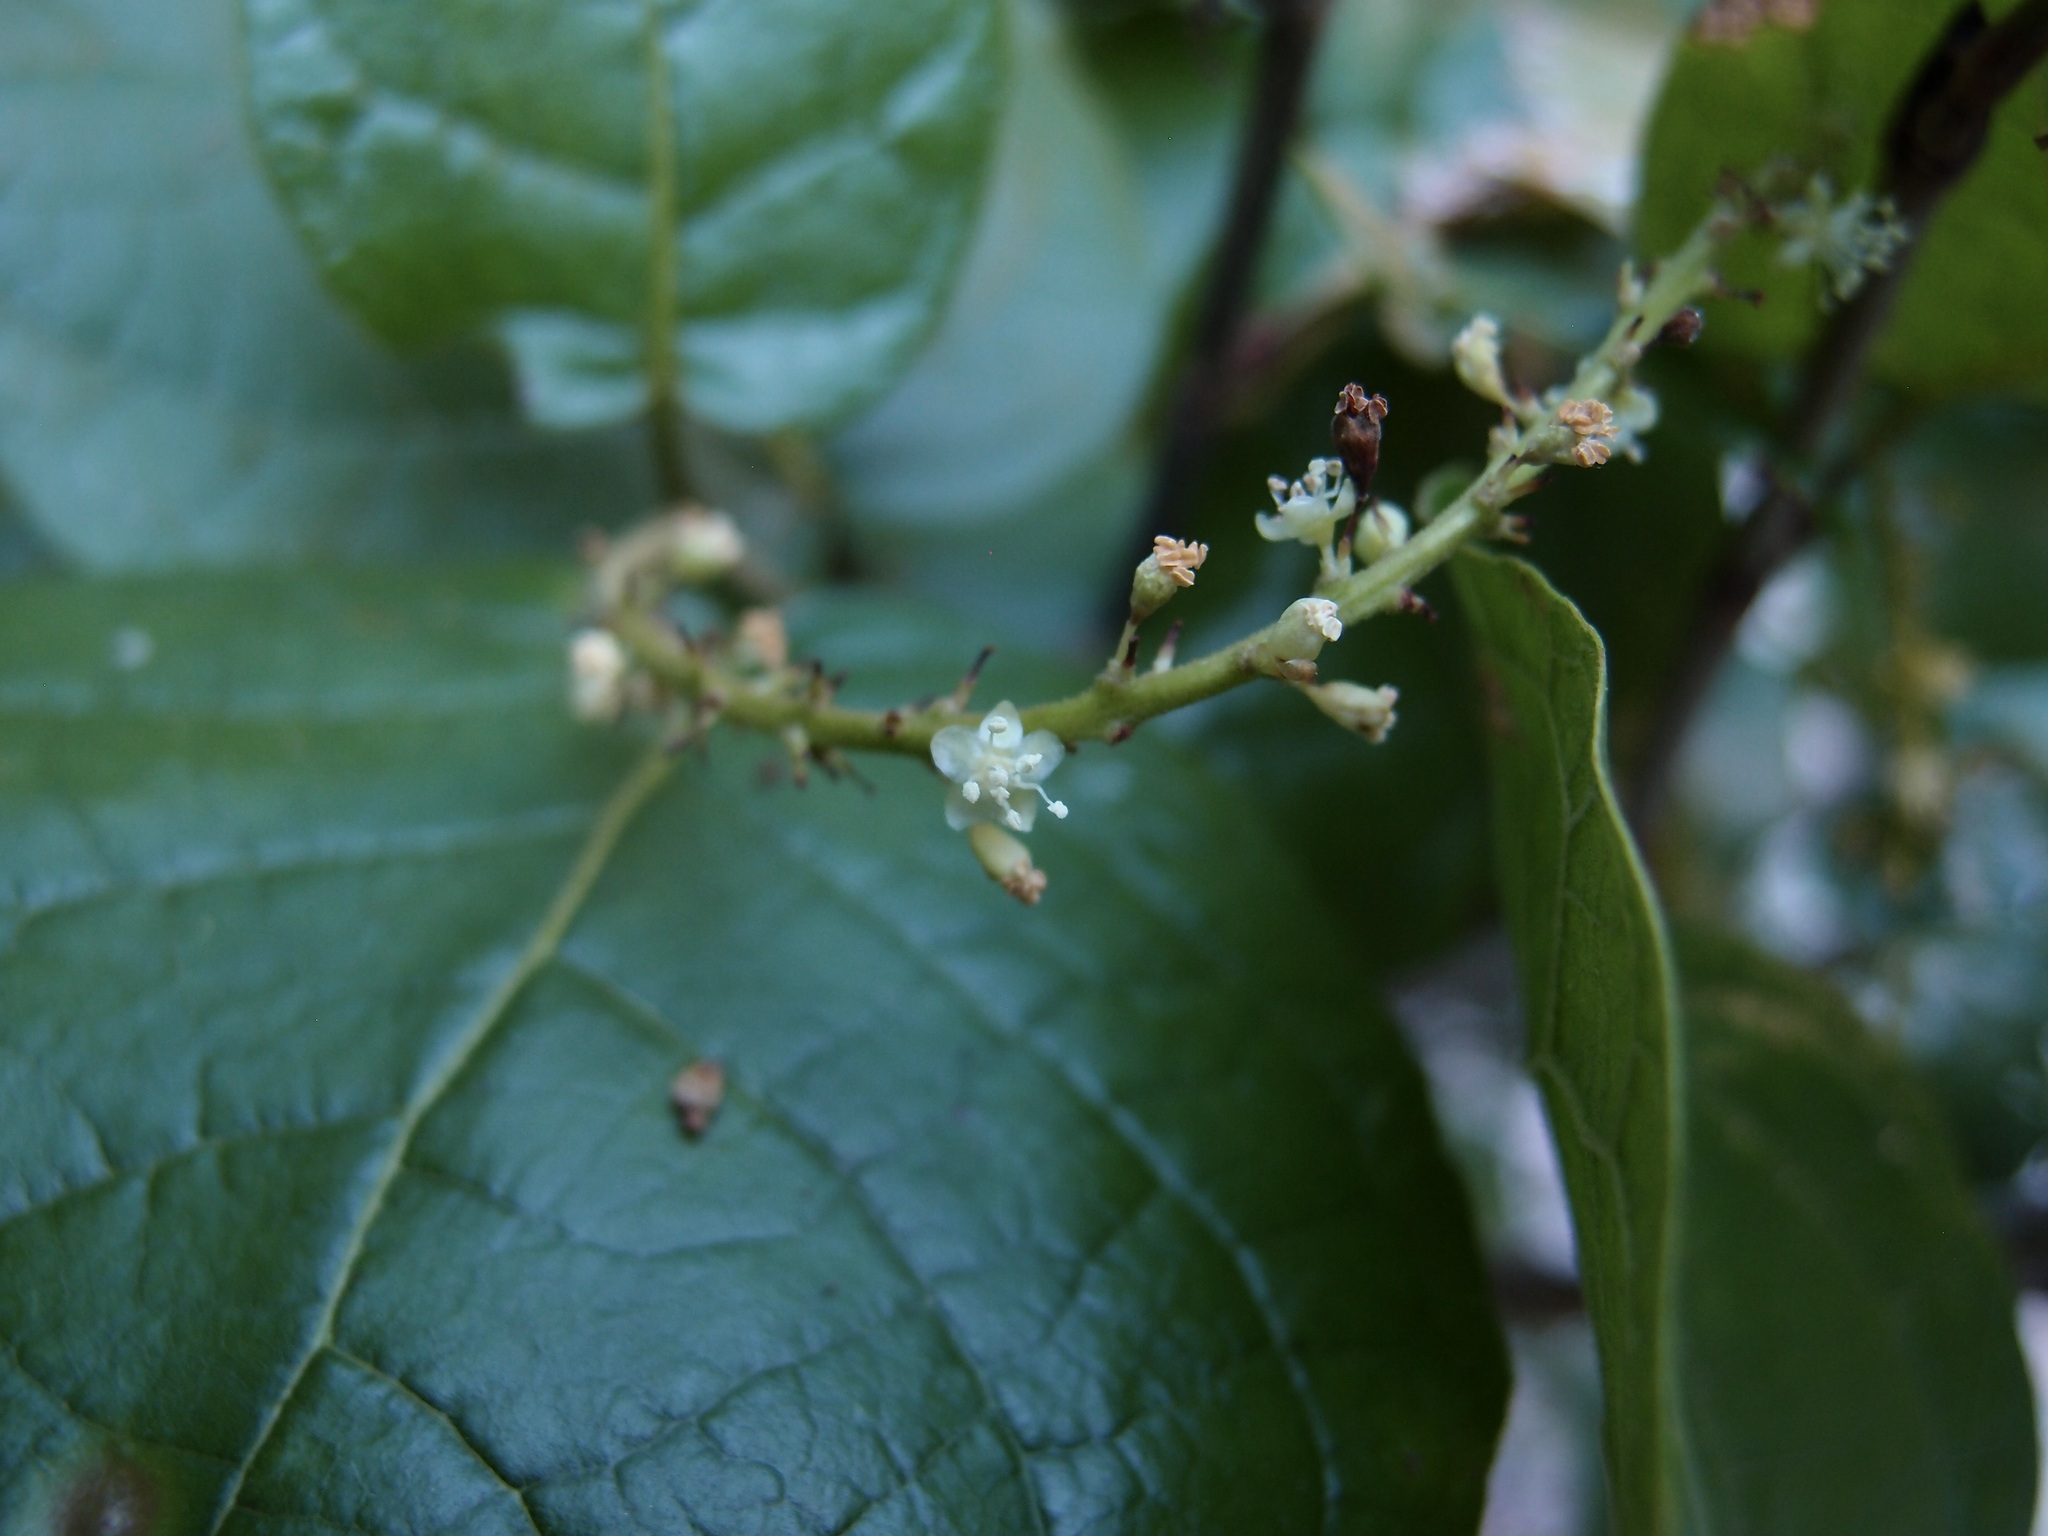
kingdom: Plantae
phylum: Tracheophyta
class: Magnoliopsida
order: Caryophyllales
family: Polygonaceae
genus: Coccoloba
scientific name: Coccoloba goldmanii
